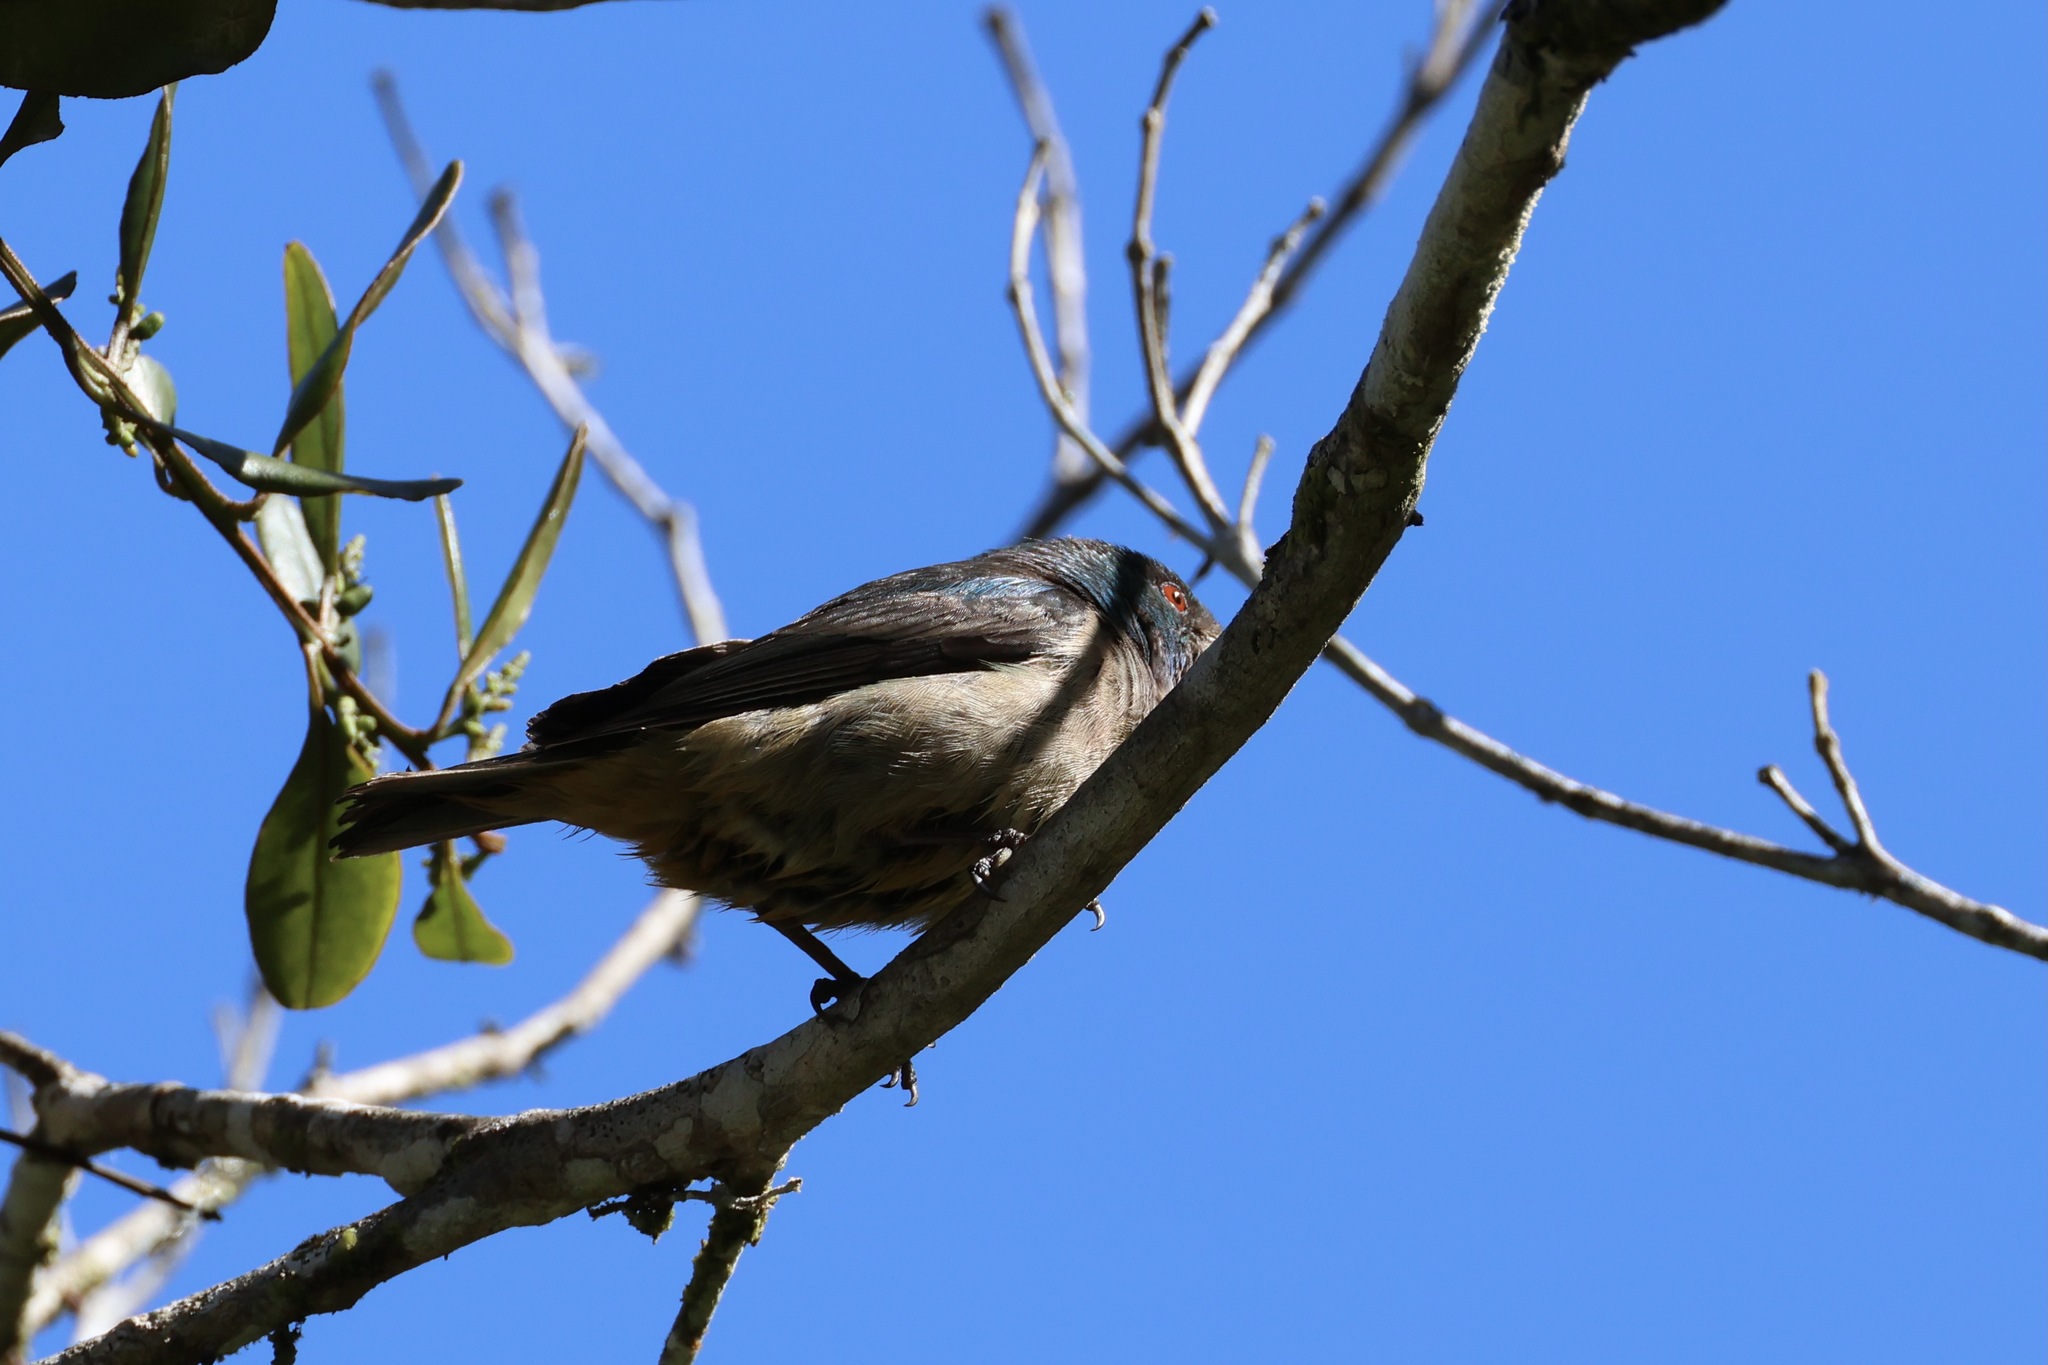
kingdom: Animalia
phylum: Chordata
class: Aves
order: Passeriformes
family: Thraupidae
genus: Dacnis
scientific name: Dacnis venusta
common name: Scarlet-thighed dacnis
